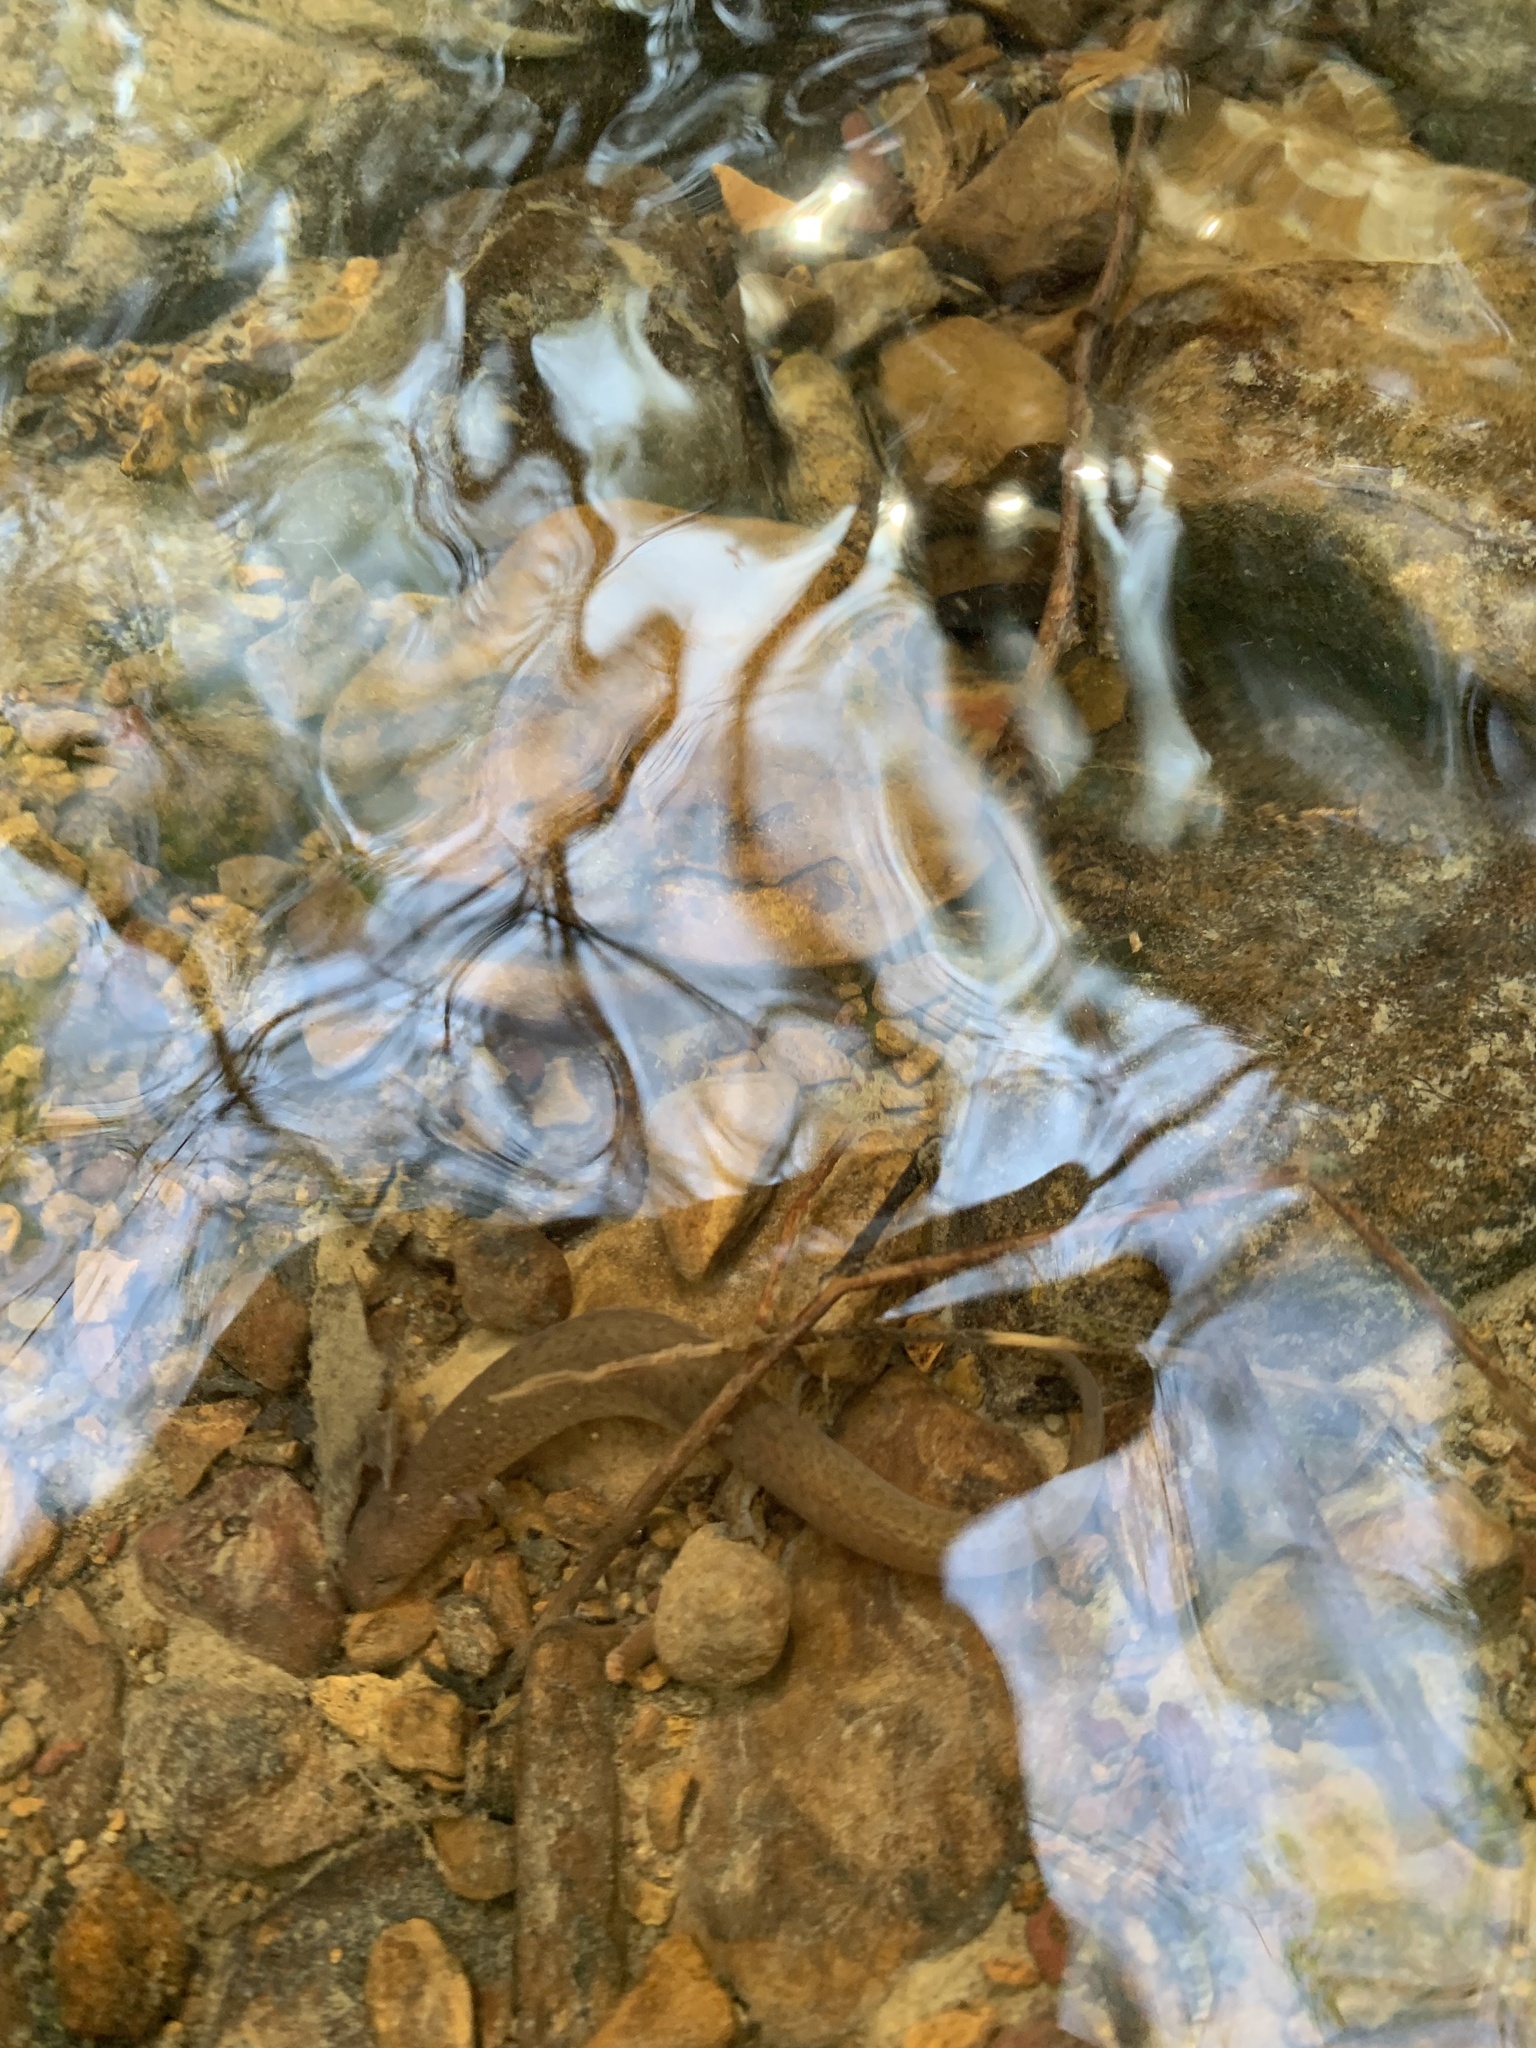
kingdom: Animalia
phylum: Chordata
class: Amphibia
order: Caudata
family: Plethodontidae
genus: Gyrinophilus
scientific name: Gyrinophilus porphyriticus
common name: Spring salamander
